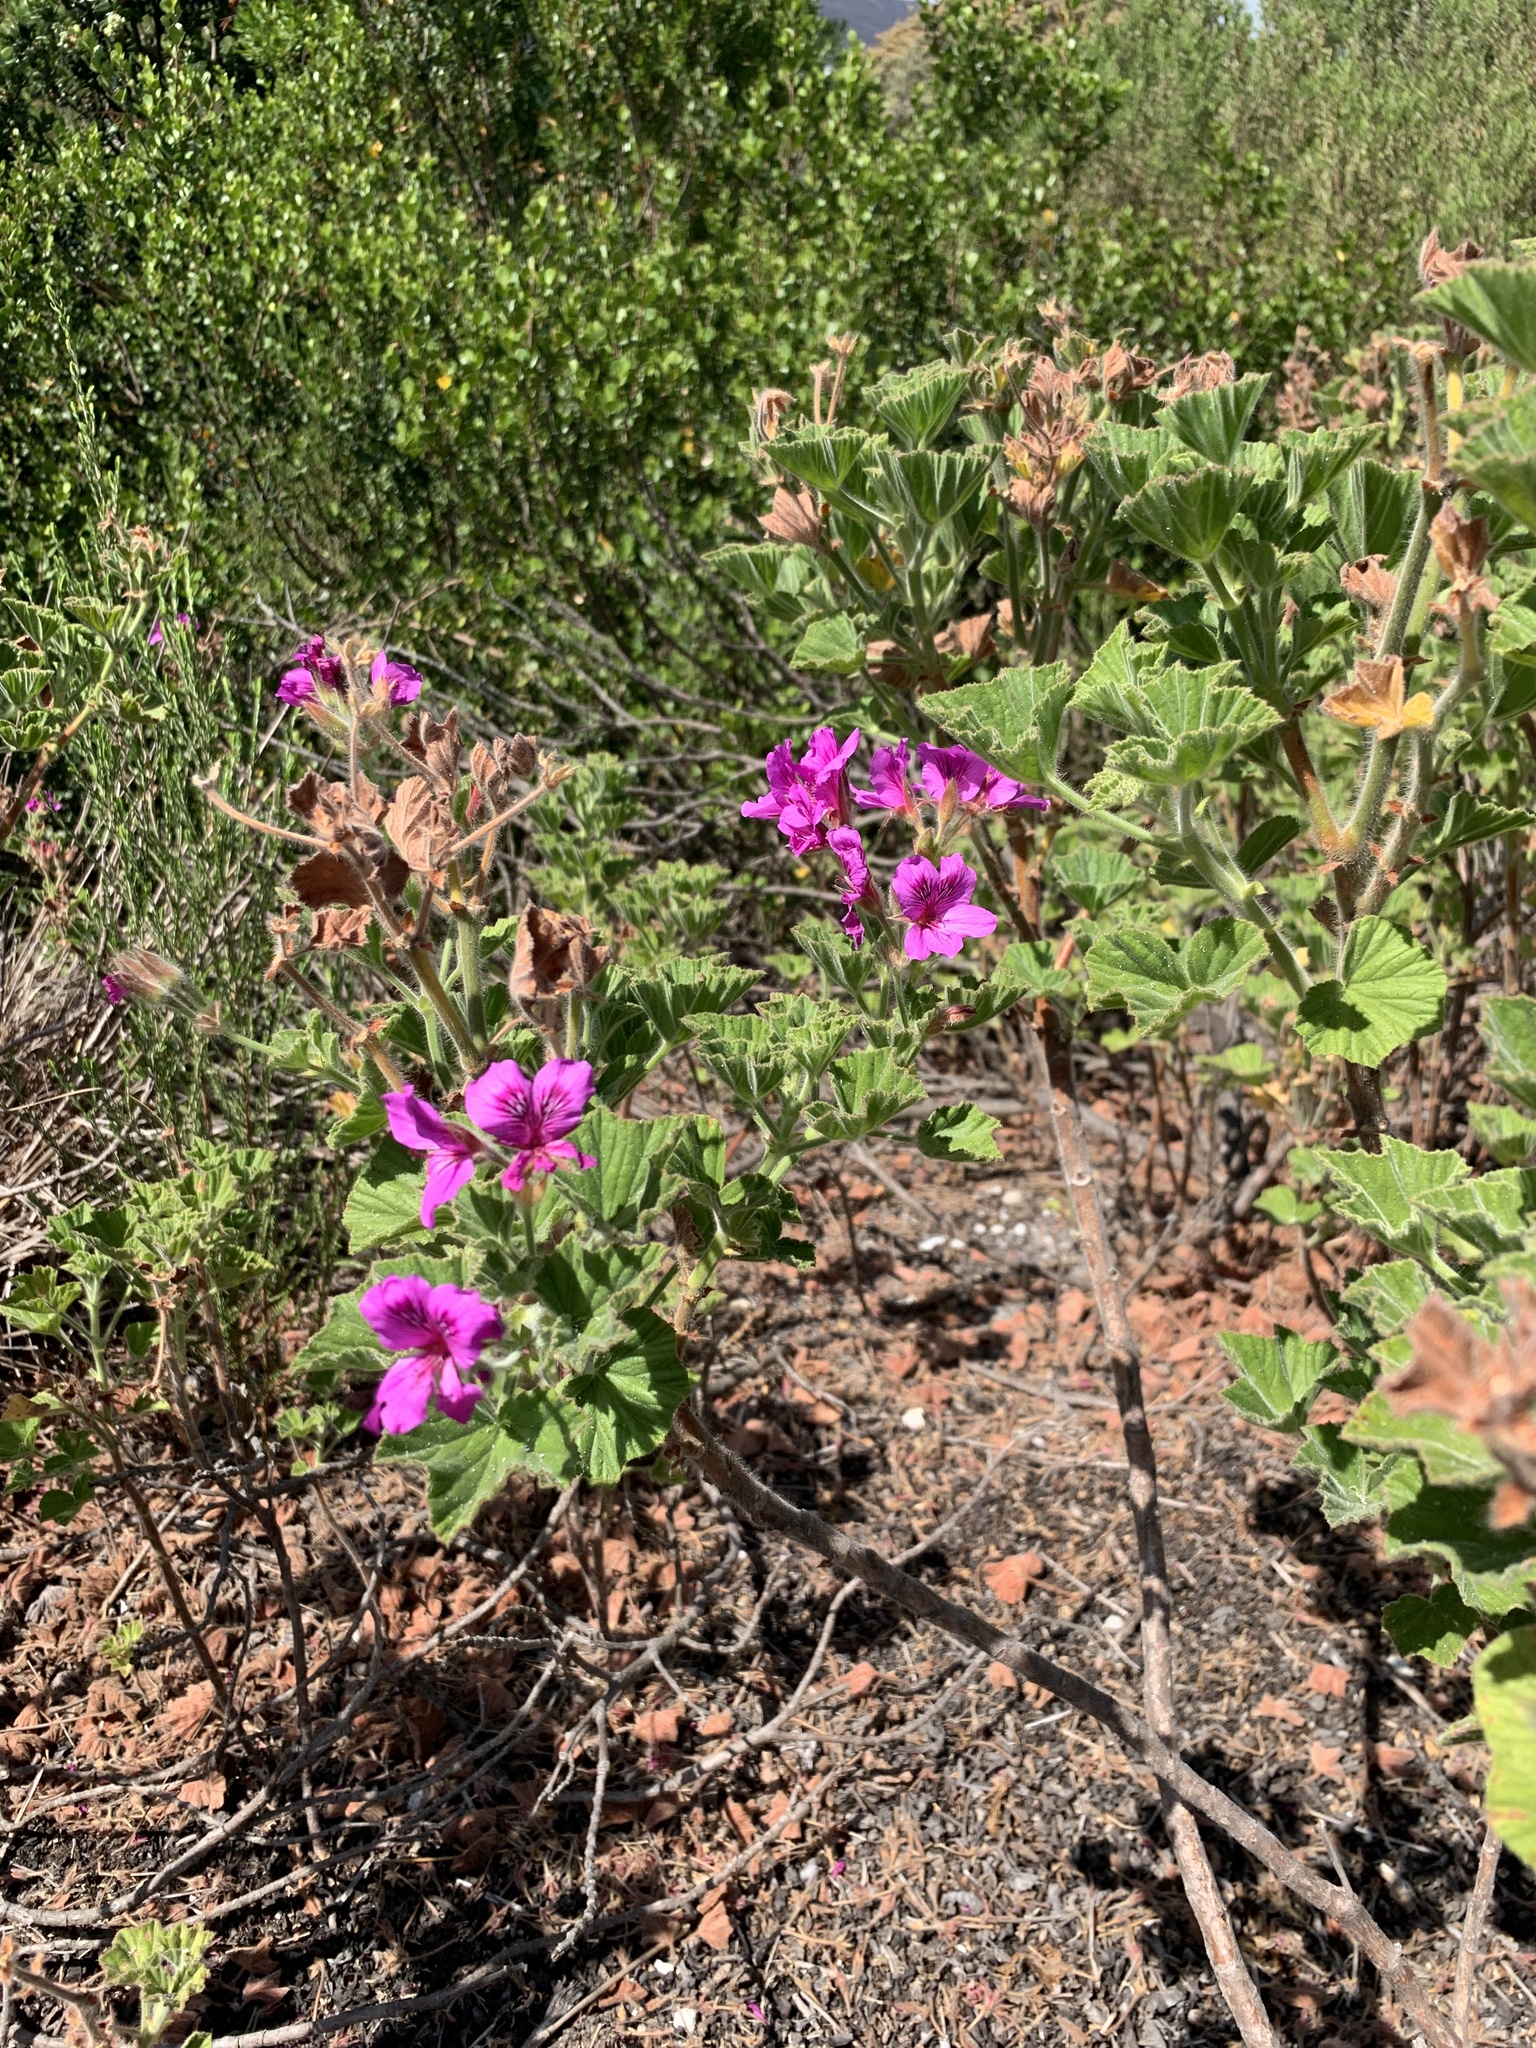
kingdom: Plantae
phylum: Tracheophyta
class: Magnoliopsida
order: Geraniales
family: Geraniaceae
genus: Pelargonium
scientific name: Pelargonium cucullatum
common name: Tree pelargonium
